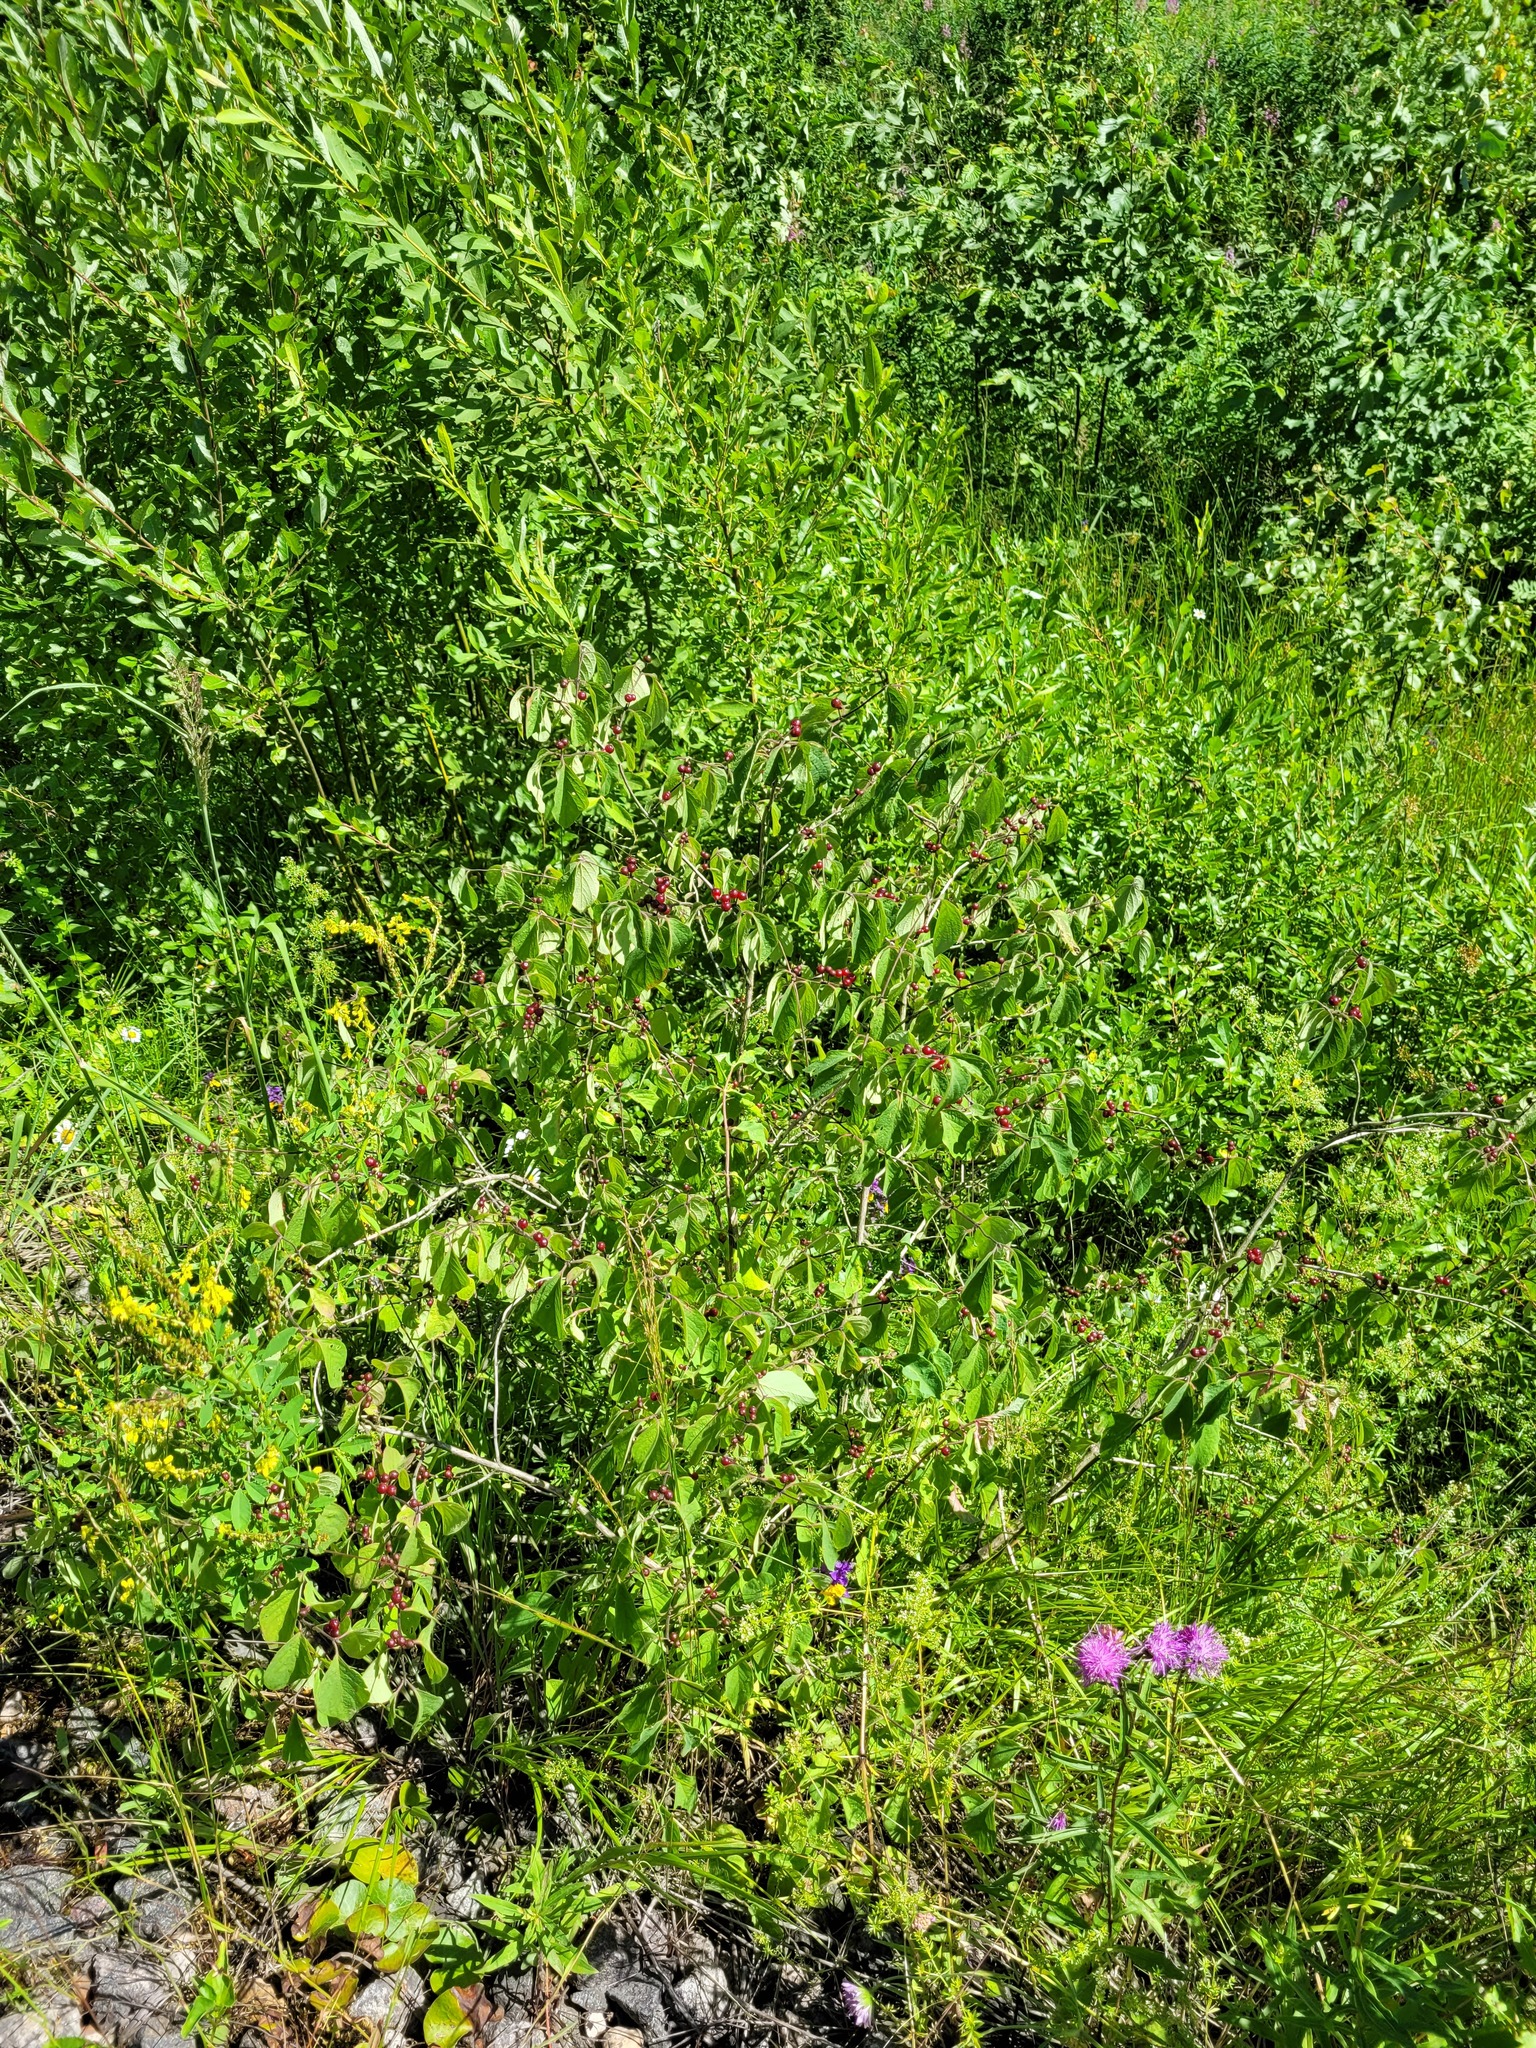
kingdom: Plantae
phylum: Tracheophyta
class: Magnoliopsida
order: Dipsacales
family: Caprifoliaceae
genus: Lonicera
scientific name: Lonicera xylosteum
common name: Fly honeysuckle
